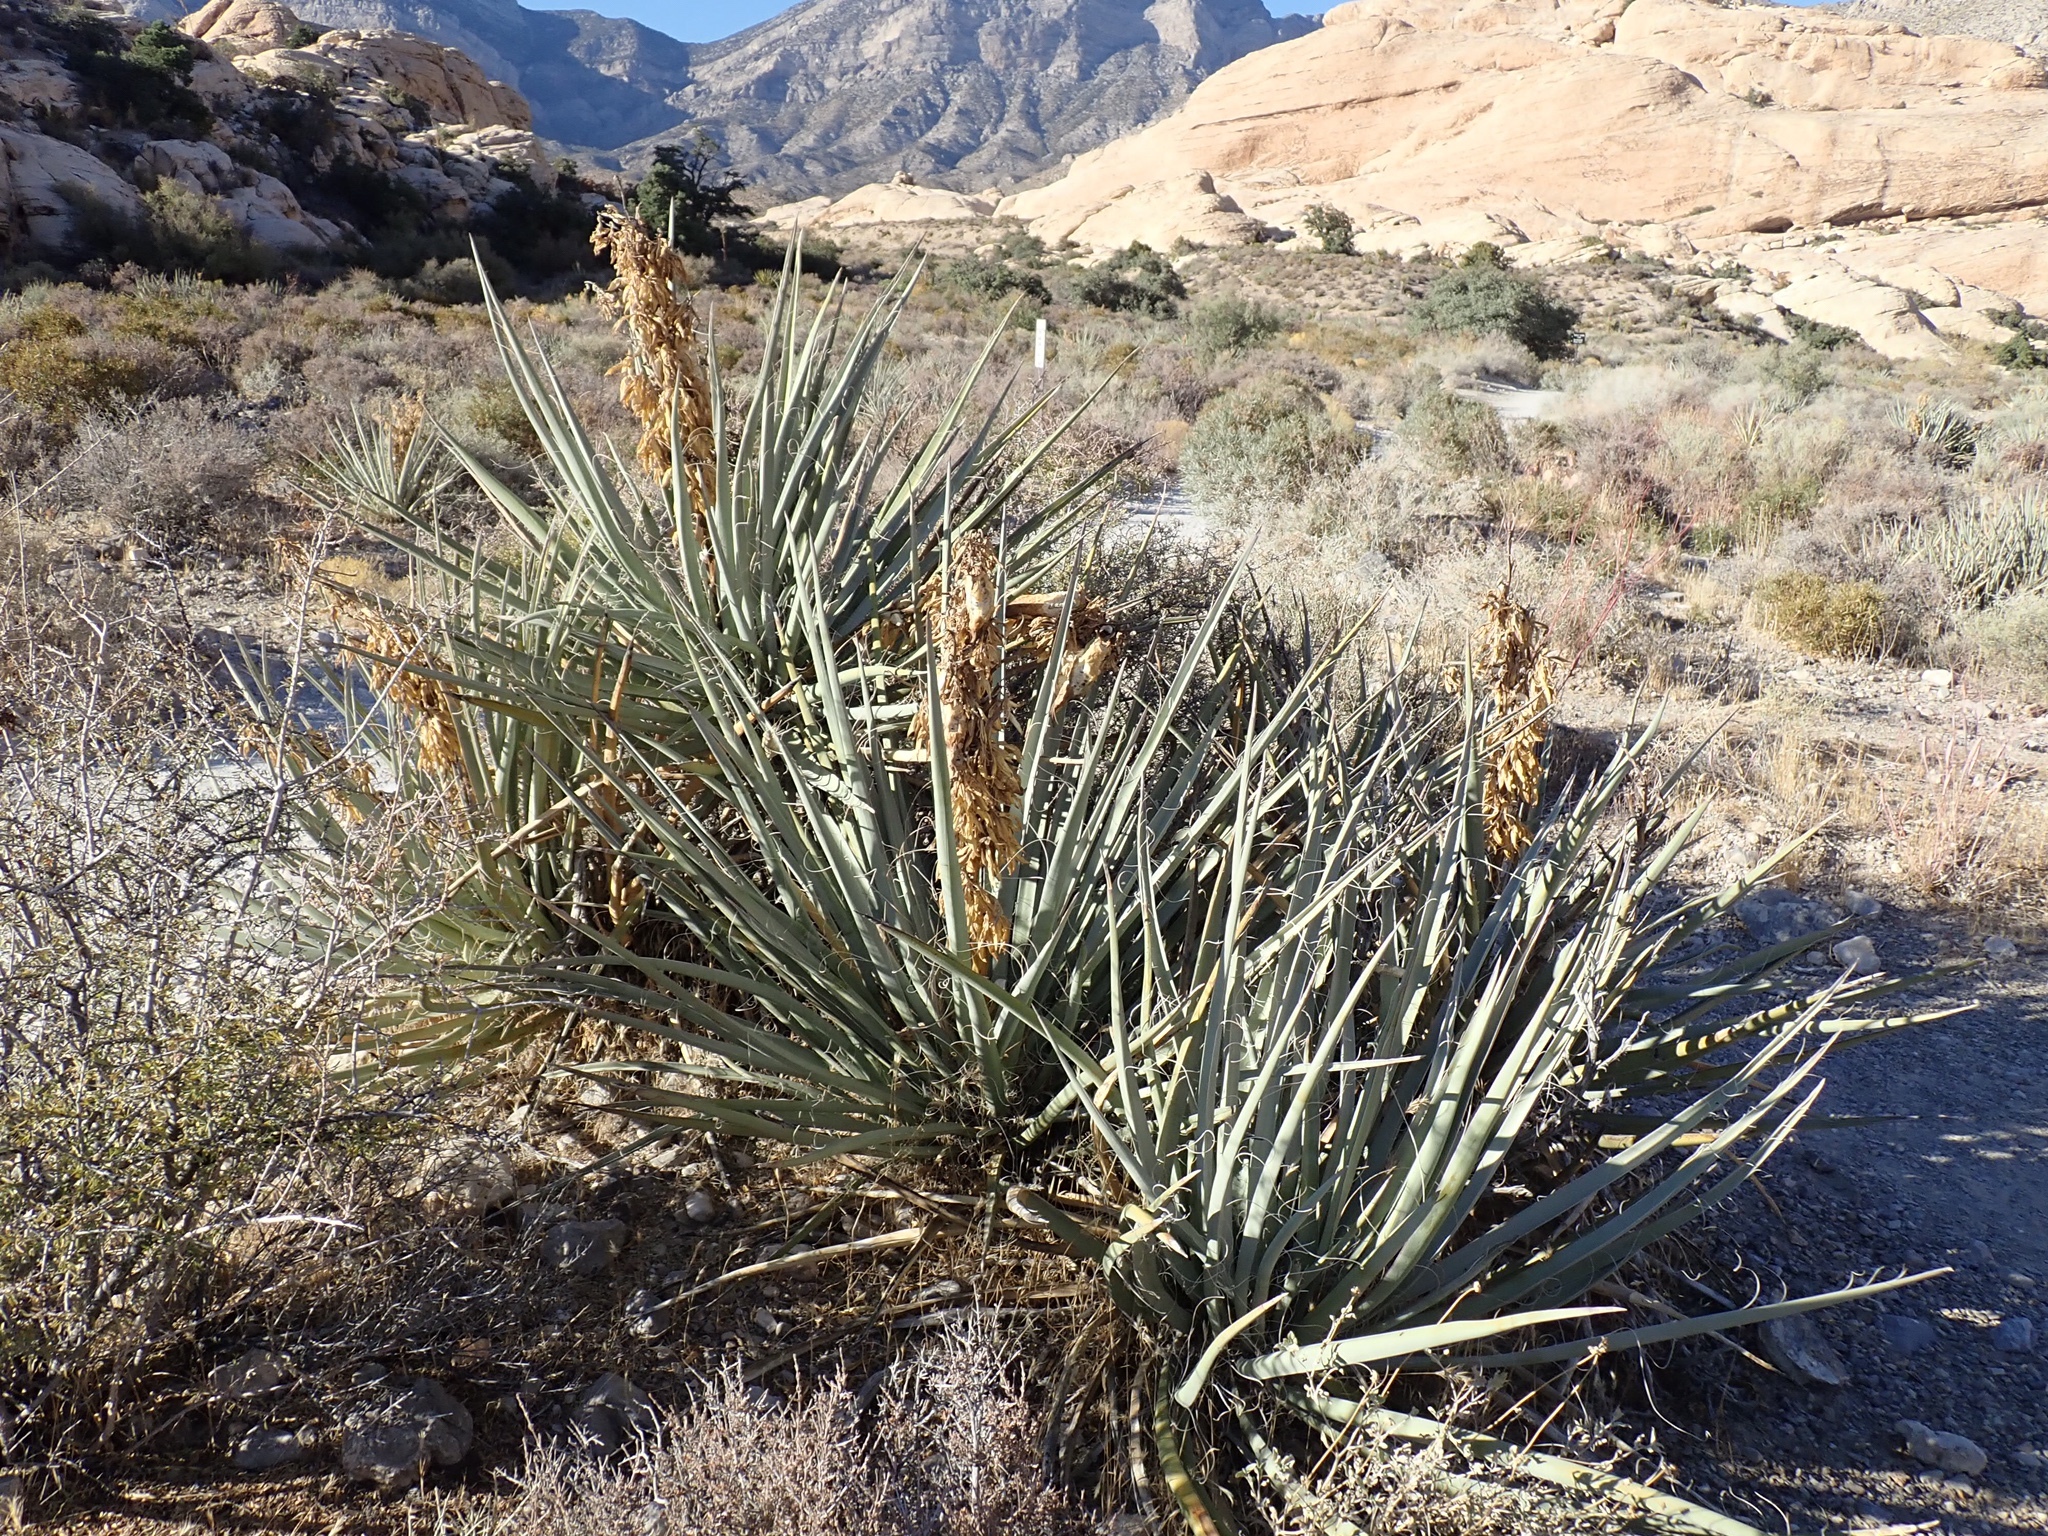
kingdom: Plantae
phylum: Tracheophyta
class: Liliopsida
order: Asparagales
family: Asparagaceae
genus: Yucca
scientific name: Yucca baccata
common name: Banana yucca
